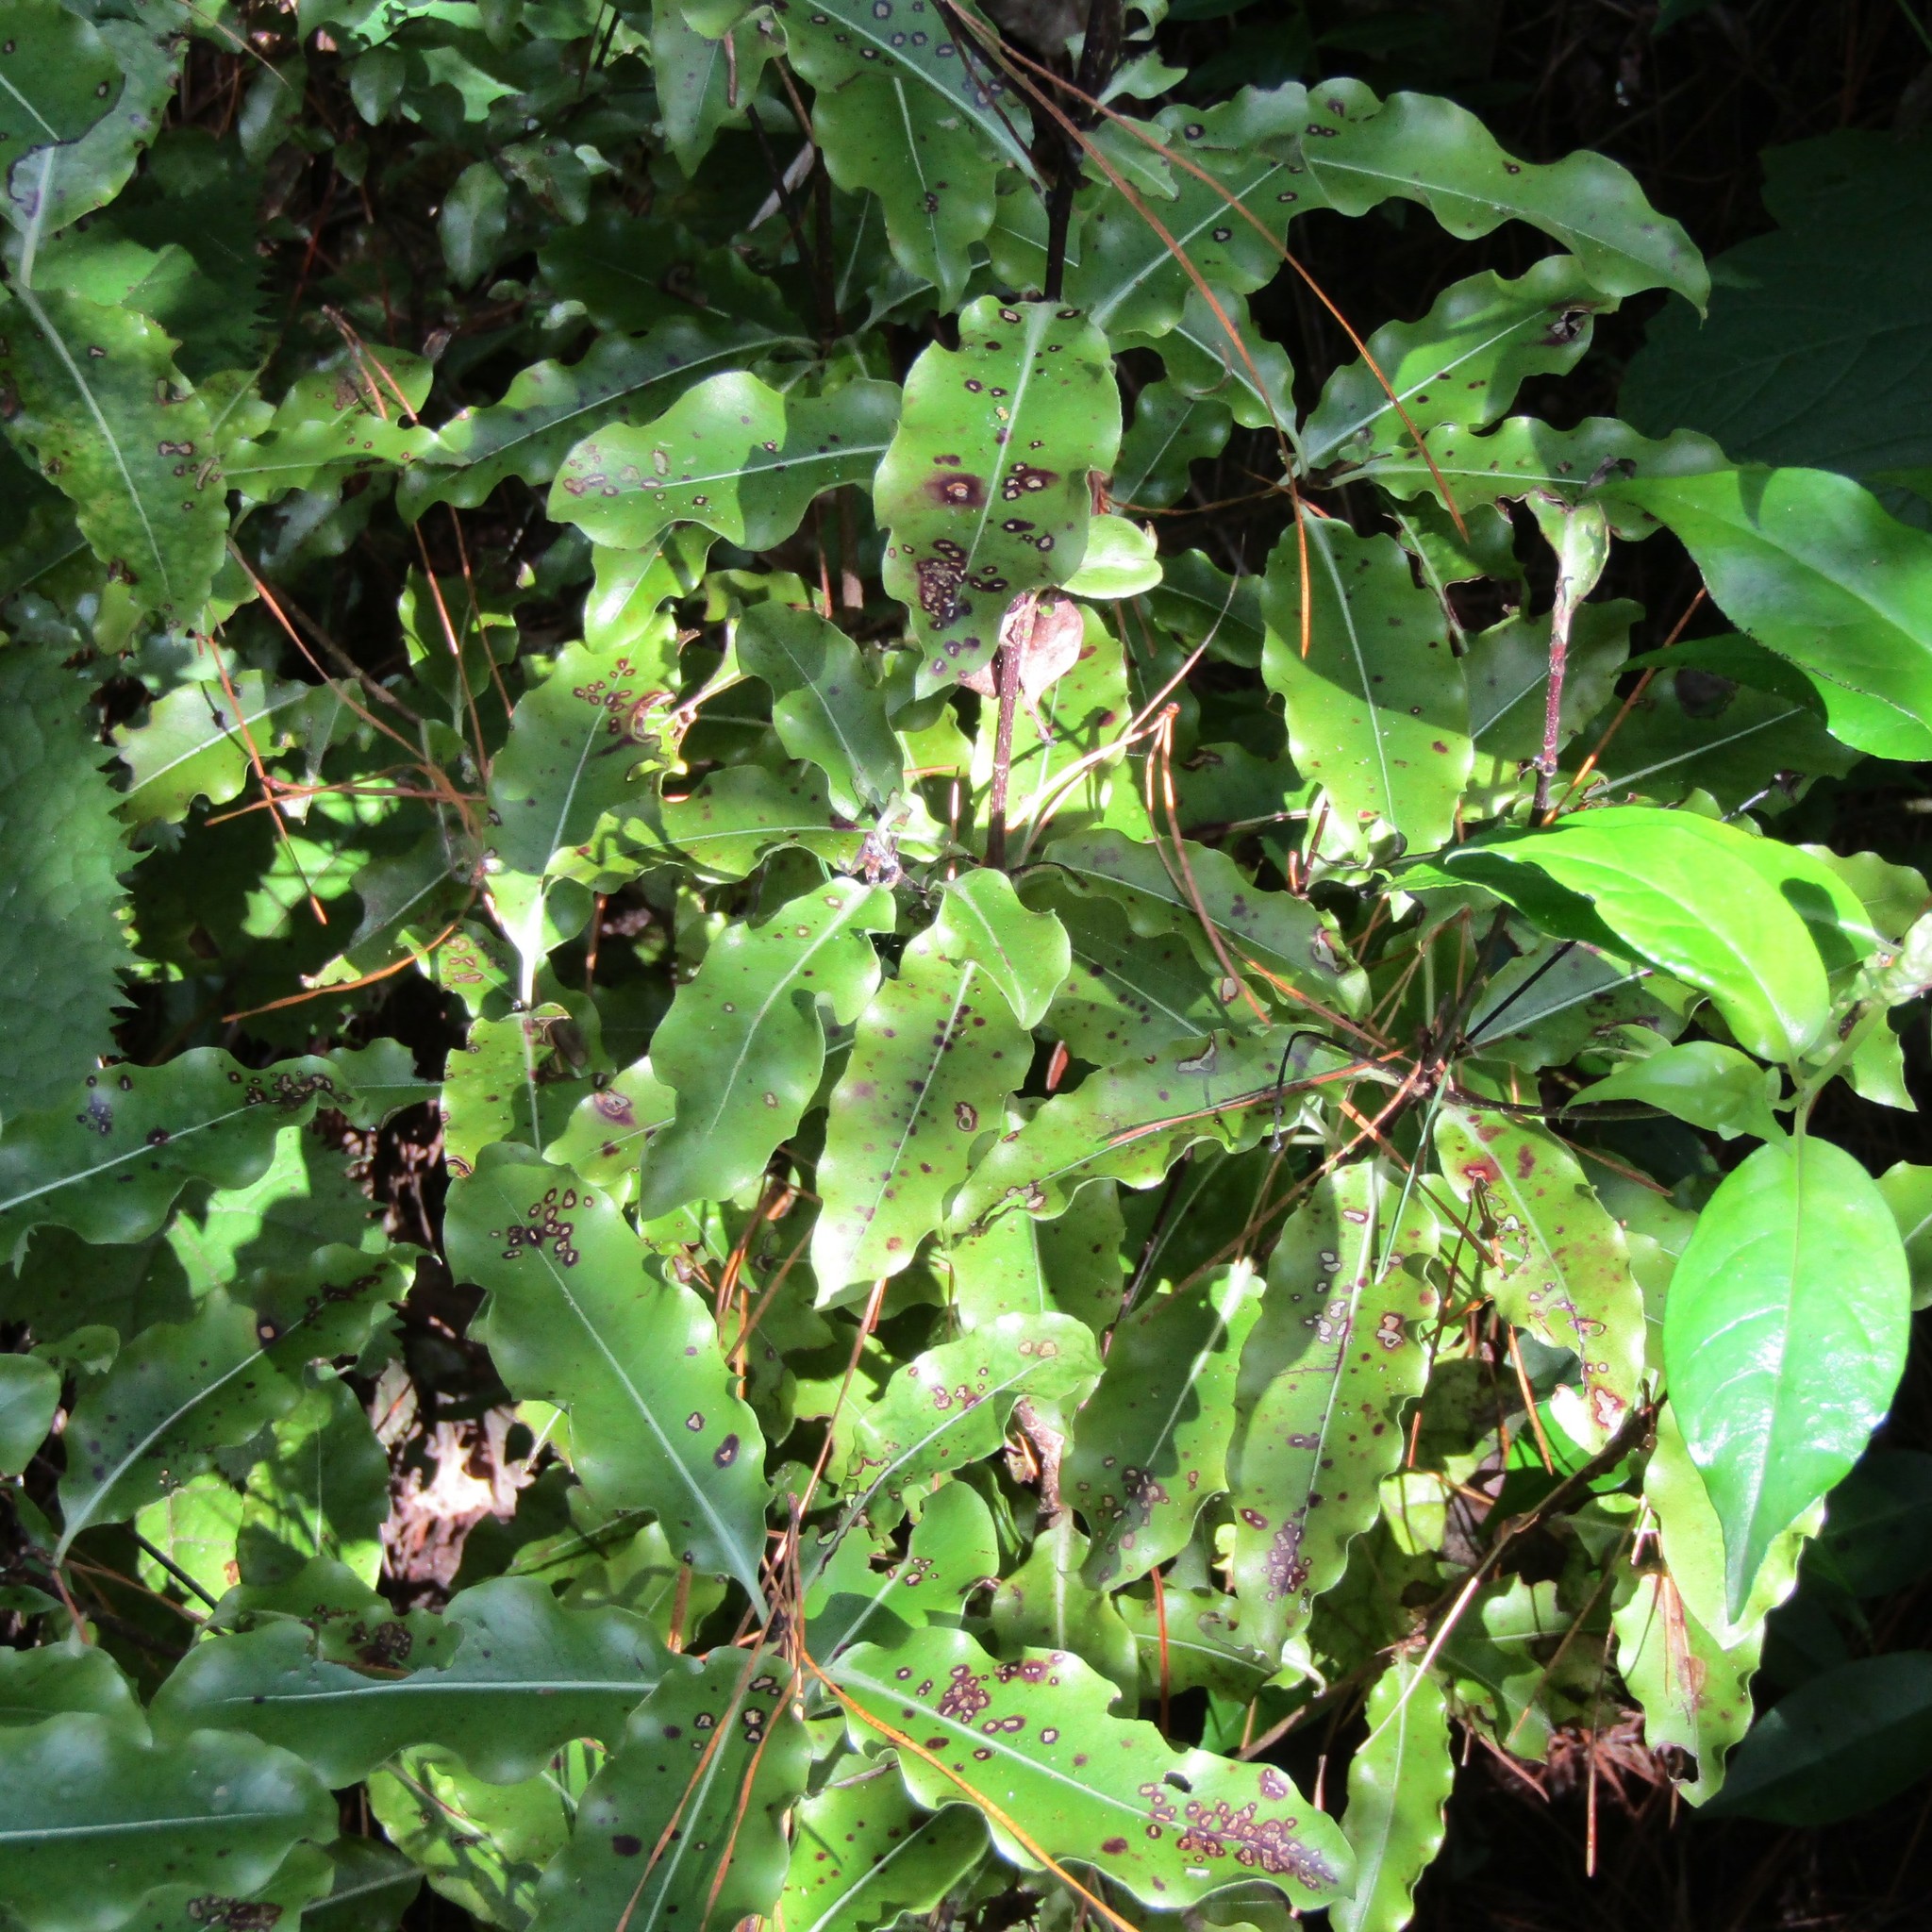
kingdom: Plantae
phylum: Tracheophyta
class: Magnoliopsida
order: Apiales
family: Pittosporaceae
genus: Pittosporum
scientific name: Pittosporum eugenioides
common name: Lemonwood
